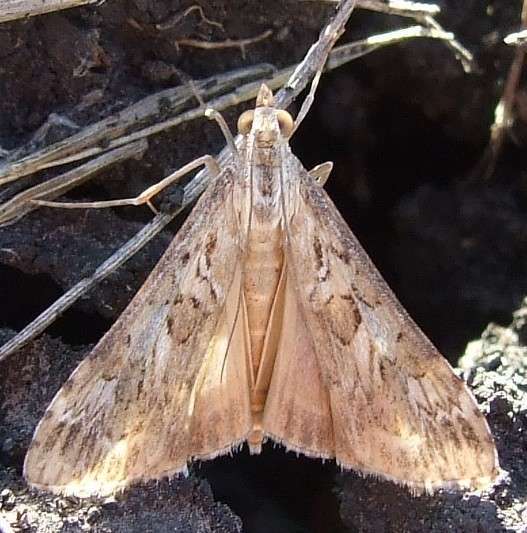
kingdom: Animalia
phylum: Arthropoda
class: Insecta
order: Lepidoptera
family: Crambidae
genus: Nomophila
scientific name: Nomophila corticalis
